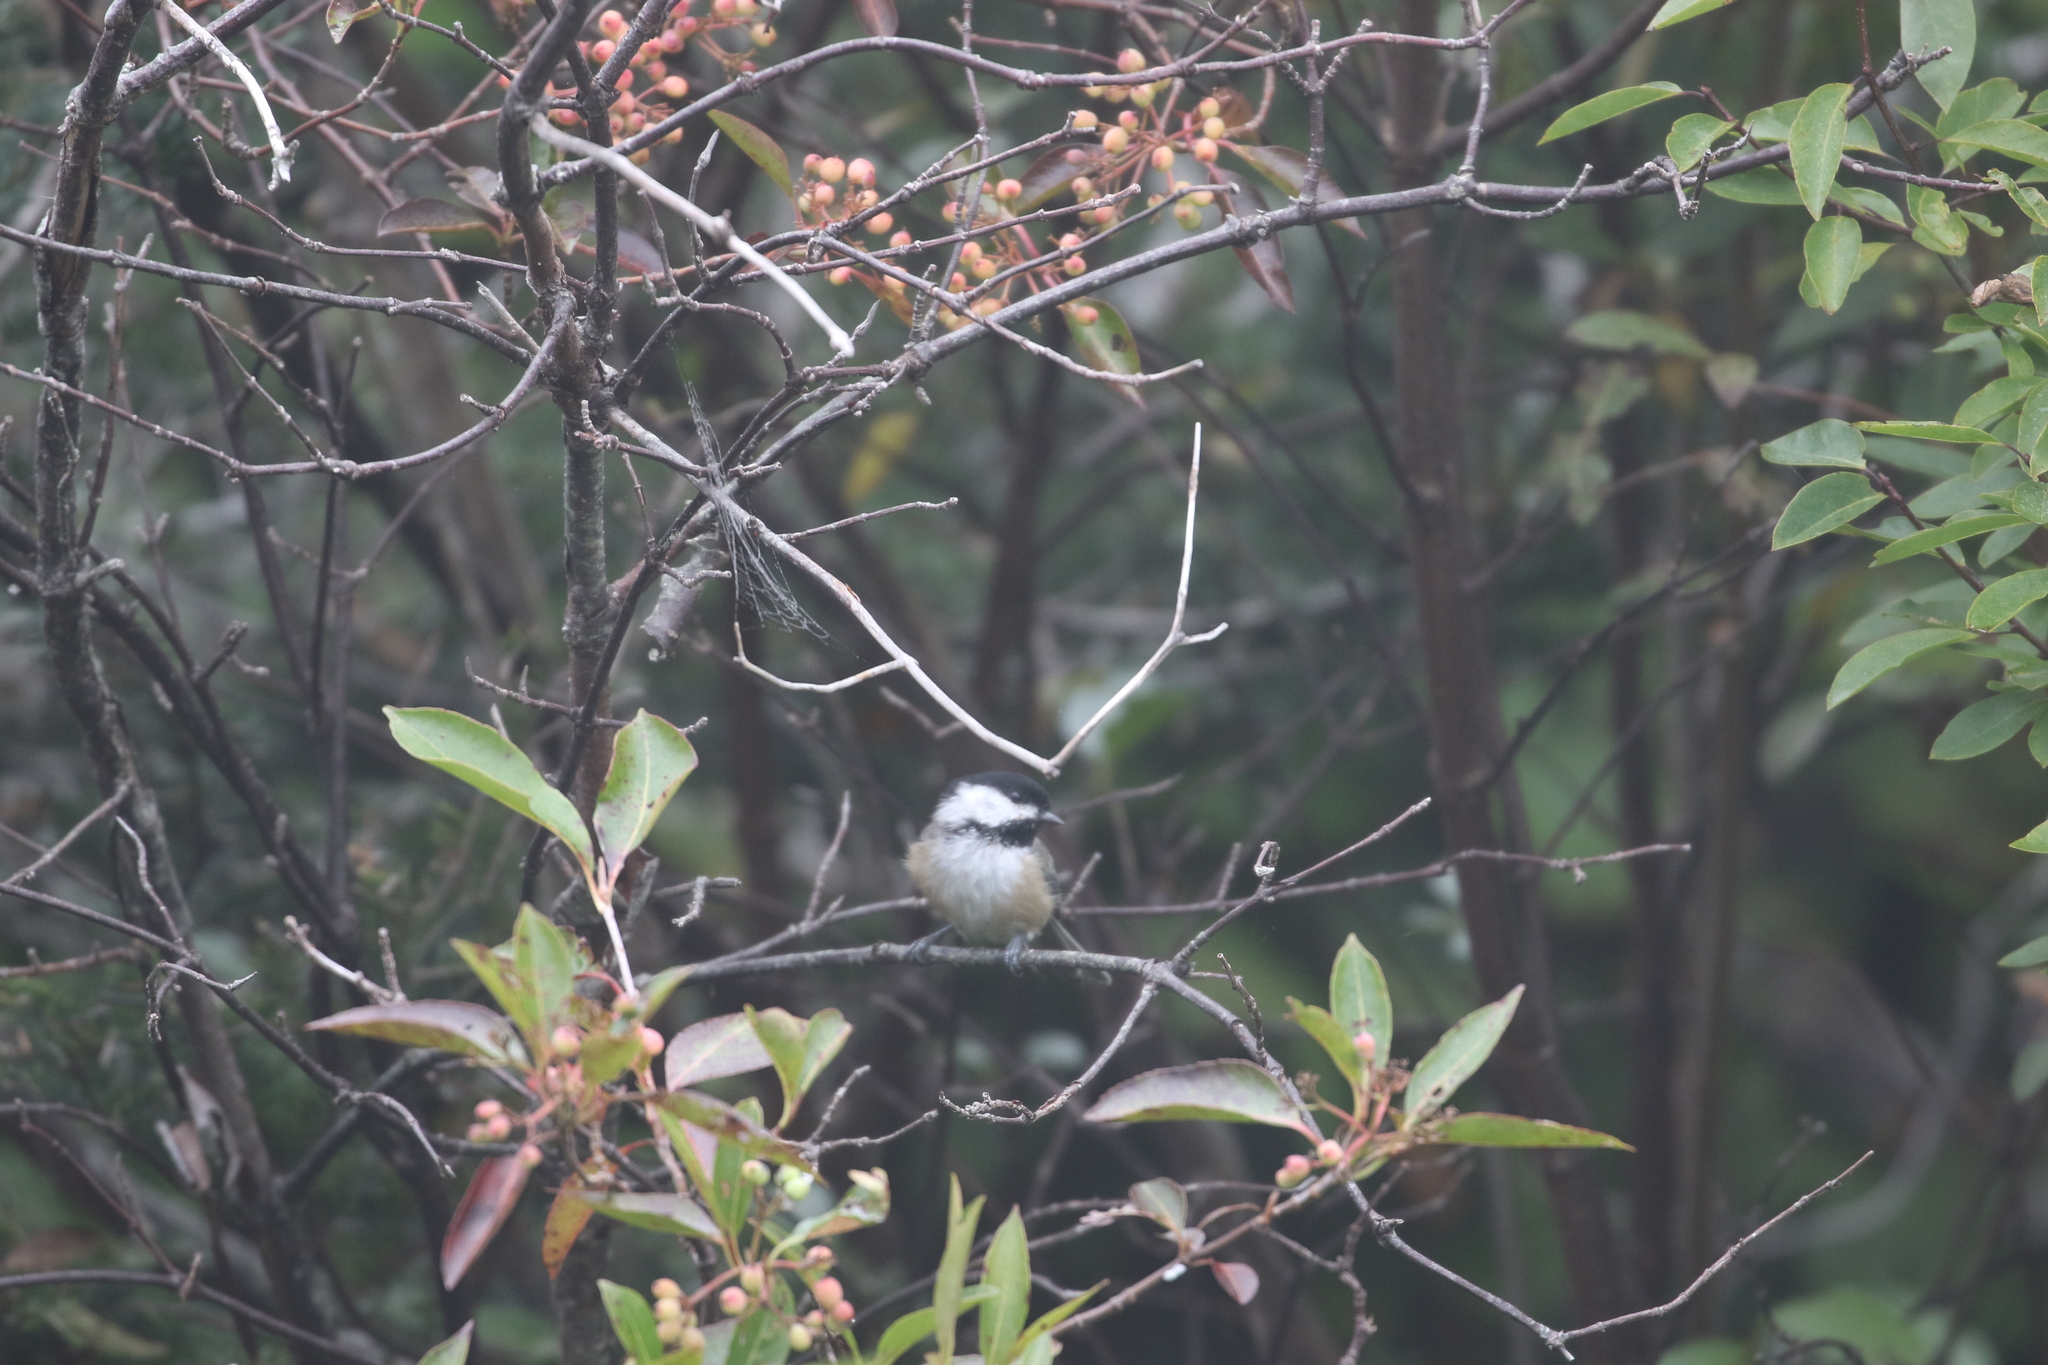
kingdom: Animalia
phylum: Chordata
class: Aves
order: Passeriformes
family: Paridae
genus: Poecile
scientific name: Poecile atricapillus
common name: Black-capped chickadee
